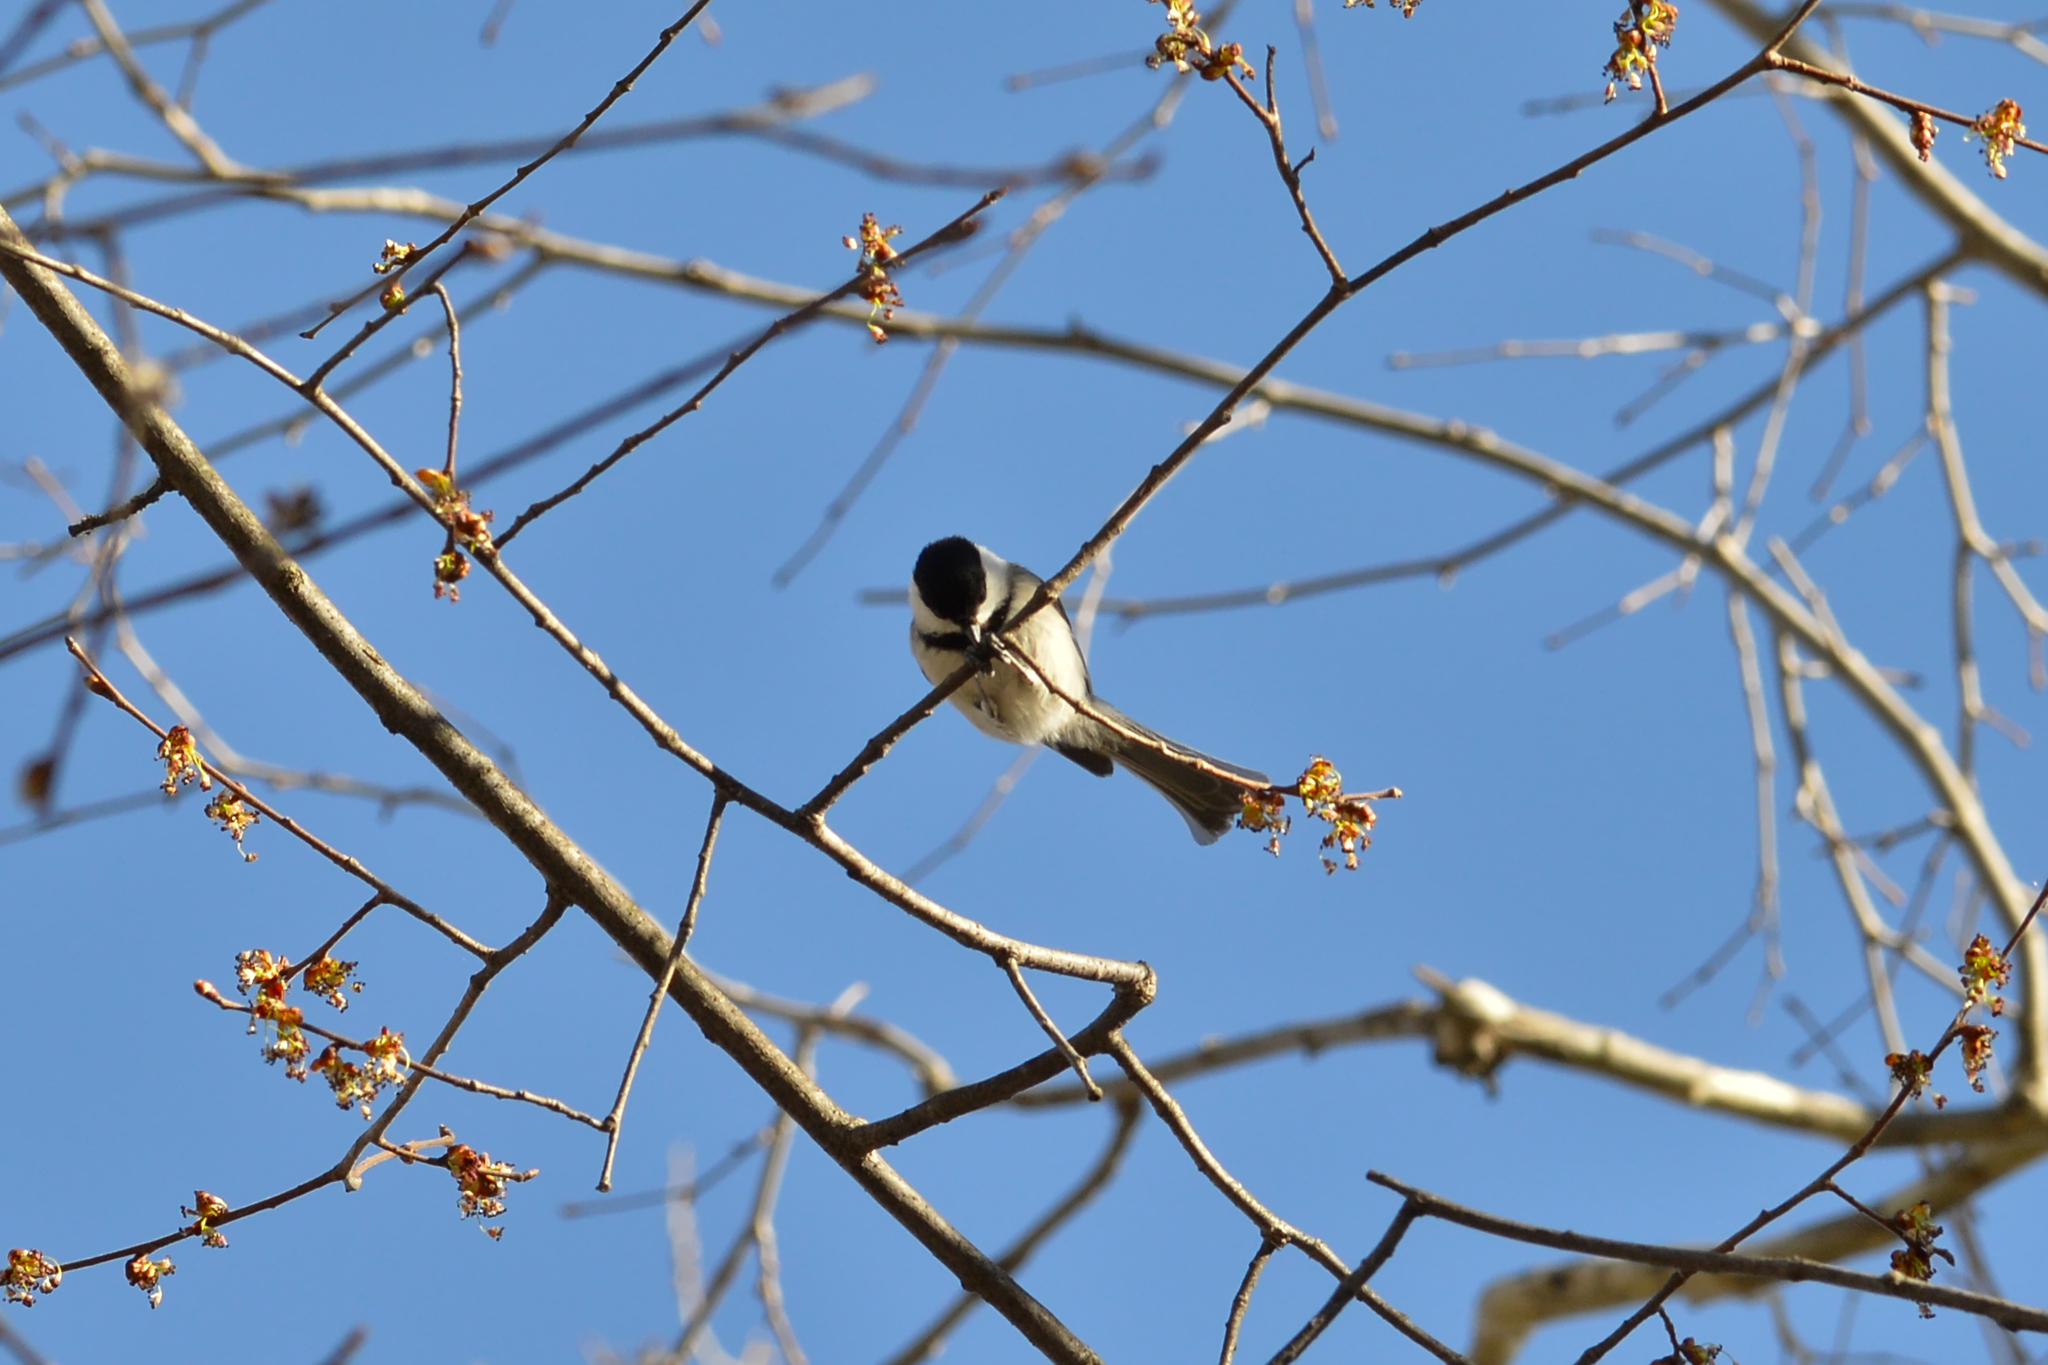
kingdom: Animalia
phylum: Chordata
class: Aves
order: Passeriformes
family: Paridae
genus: Poecile
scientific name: Poecile atricapillus
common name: Black-capped chickadee
